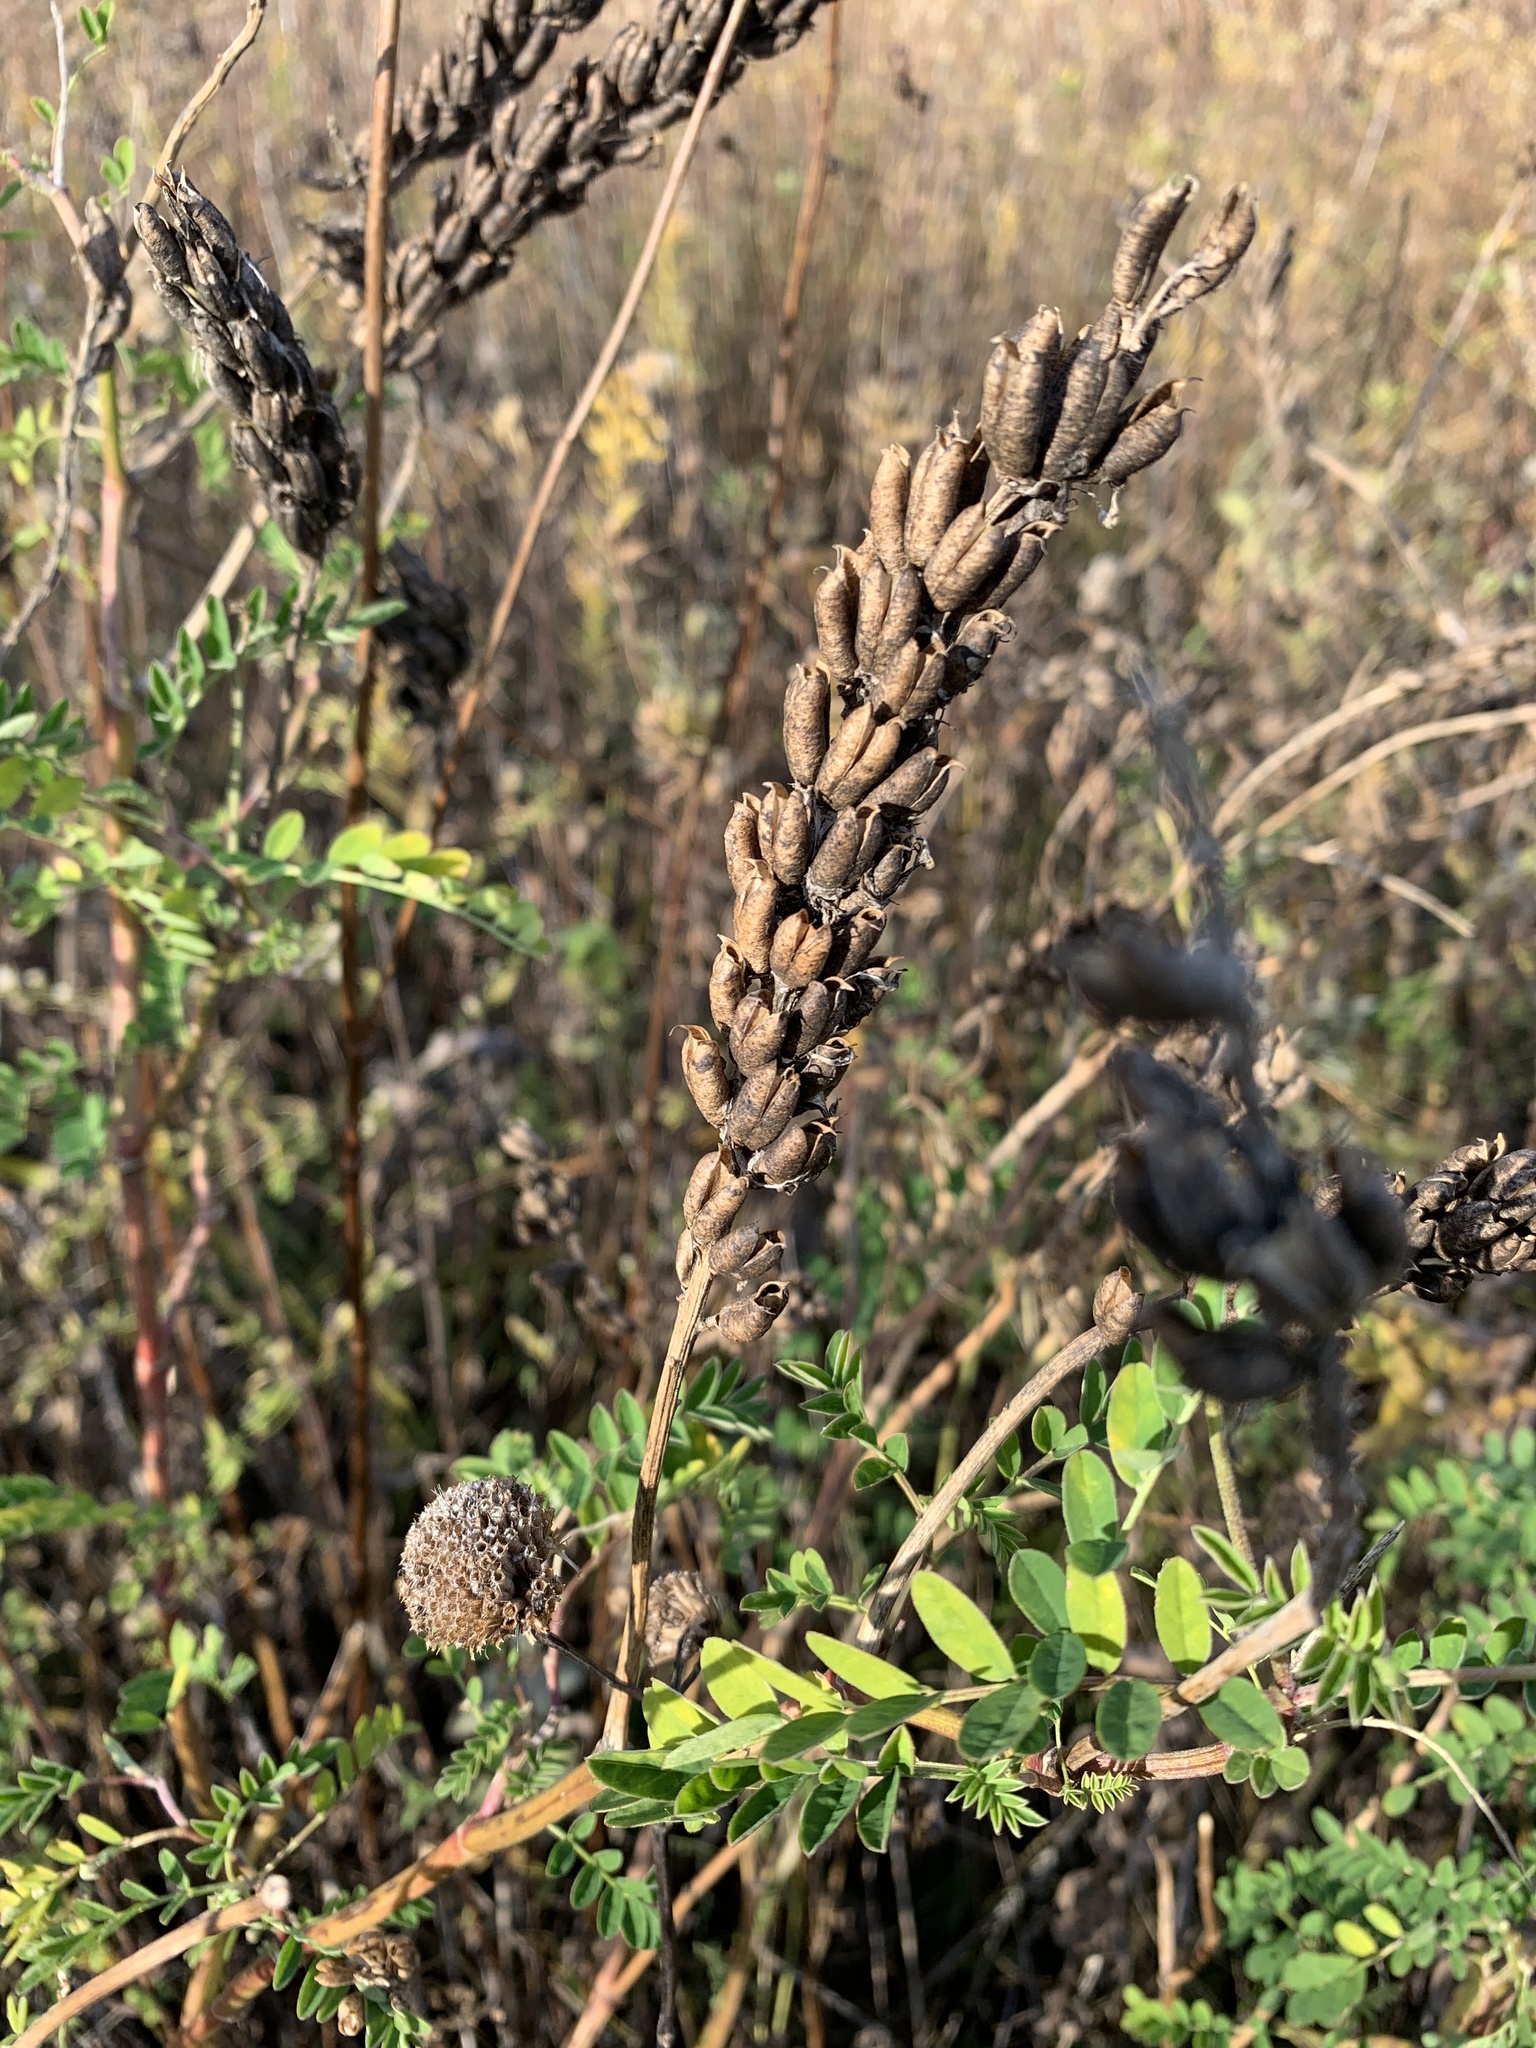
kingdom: Plantae
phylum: Tracheophyta
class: Magnoliopsida
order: Fabales
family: Fabaceae
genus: Astragalus
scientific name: Astragalus canadensis
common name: Canada milk-vetch
